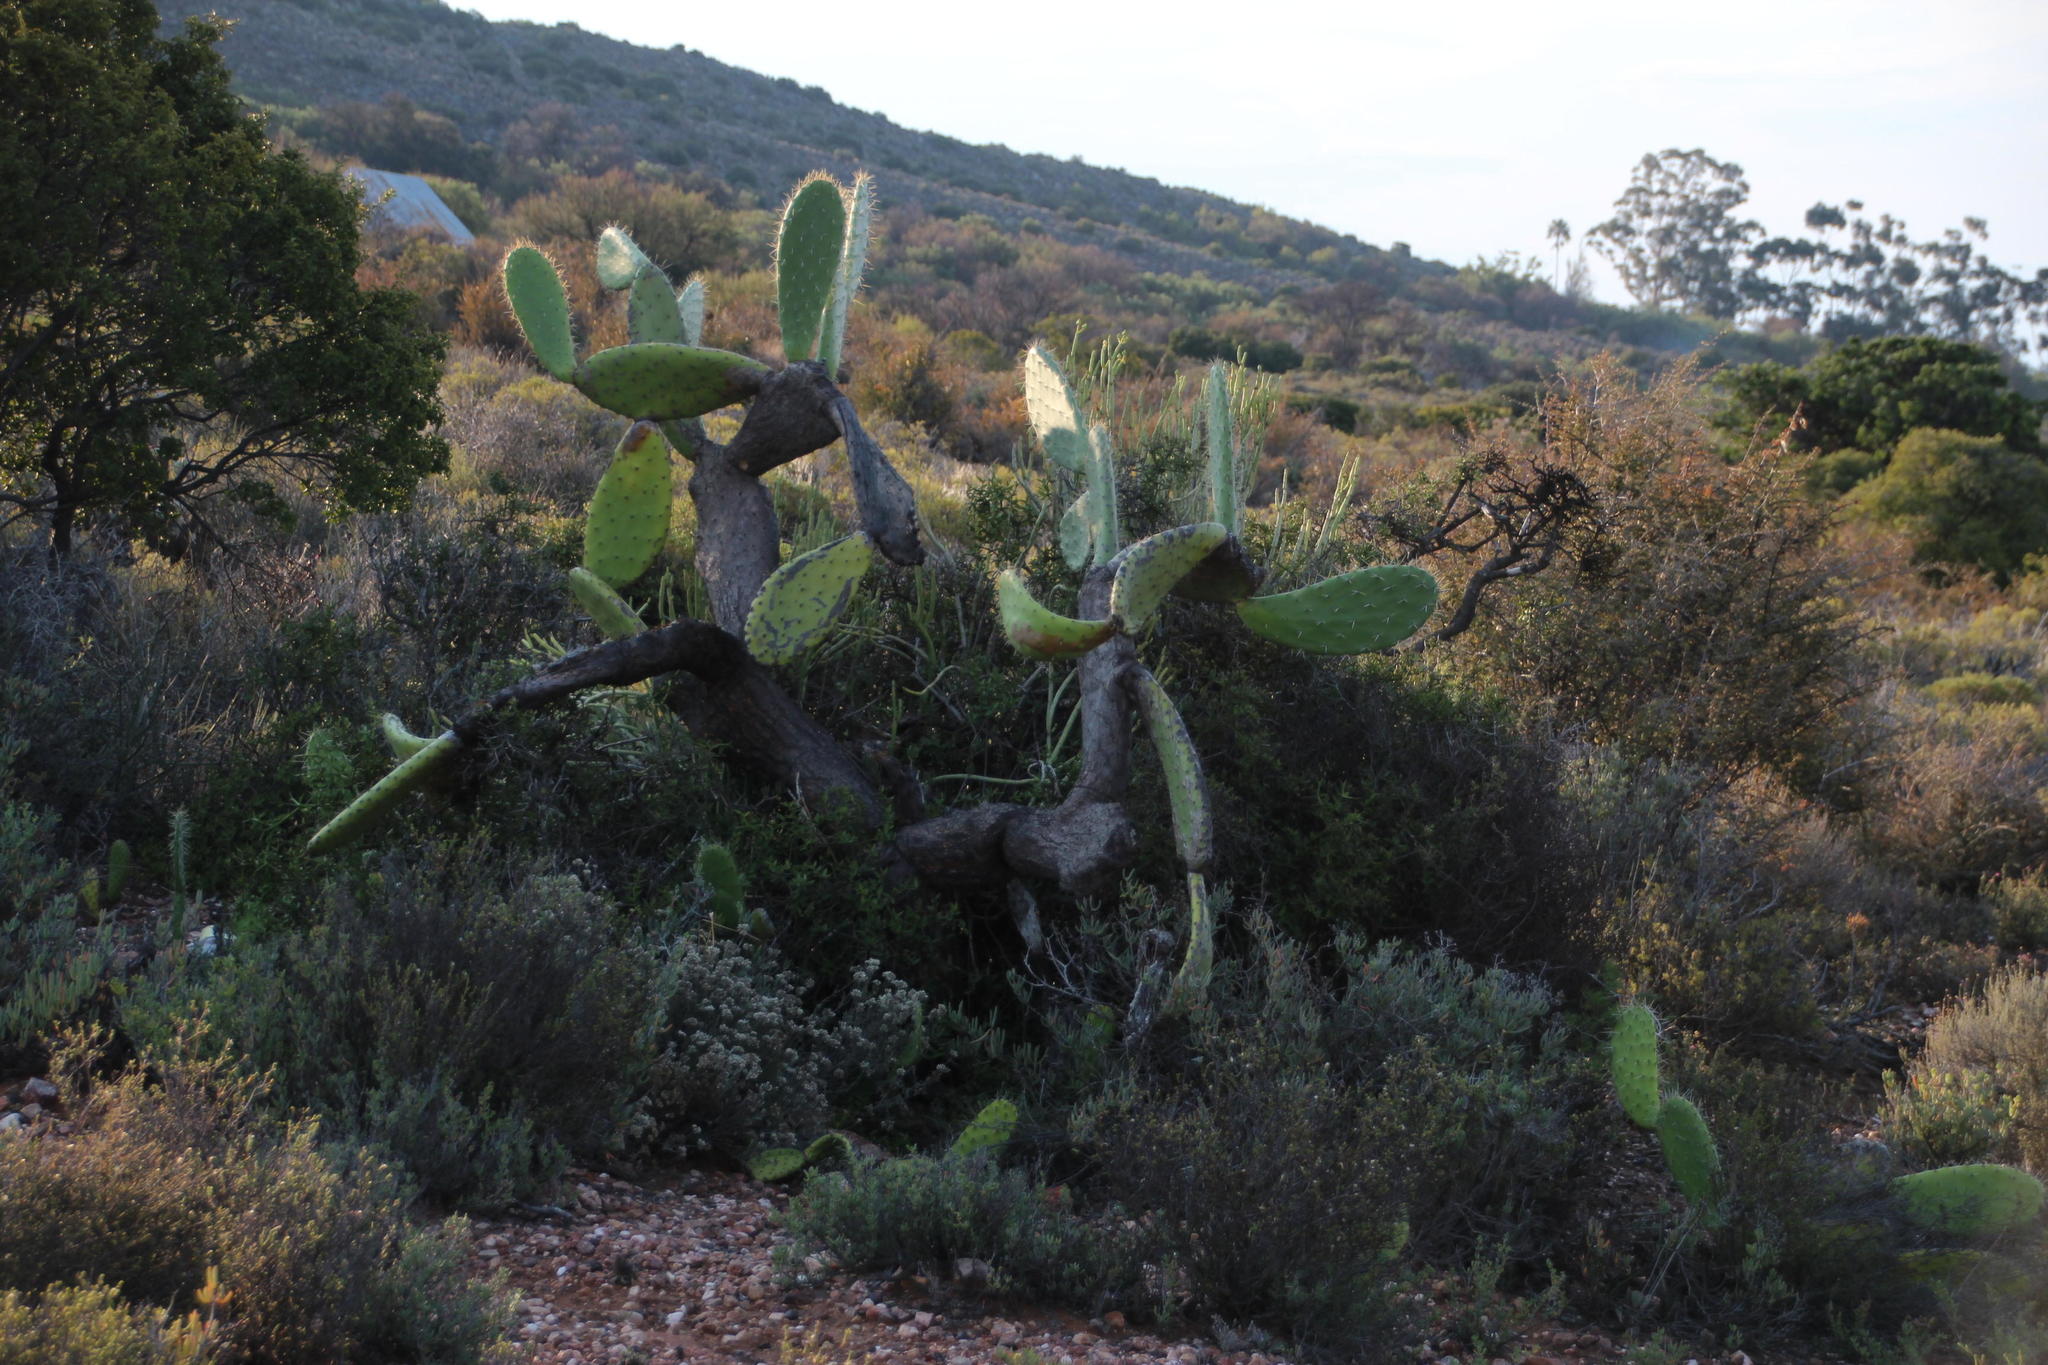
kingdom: Plantae
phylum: Tracheophyta
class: Magnoliopsida
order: Caryophyllales
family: Cactaceae
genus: Opuntia
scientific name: Opuntia ficus-indica
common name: Barbary fig
